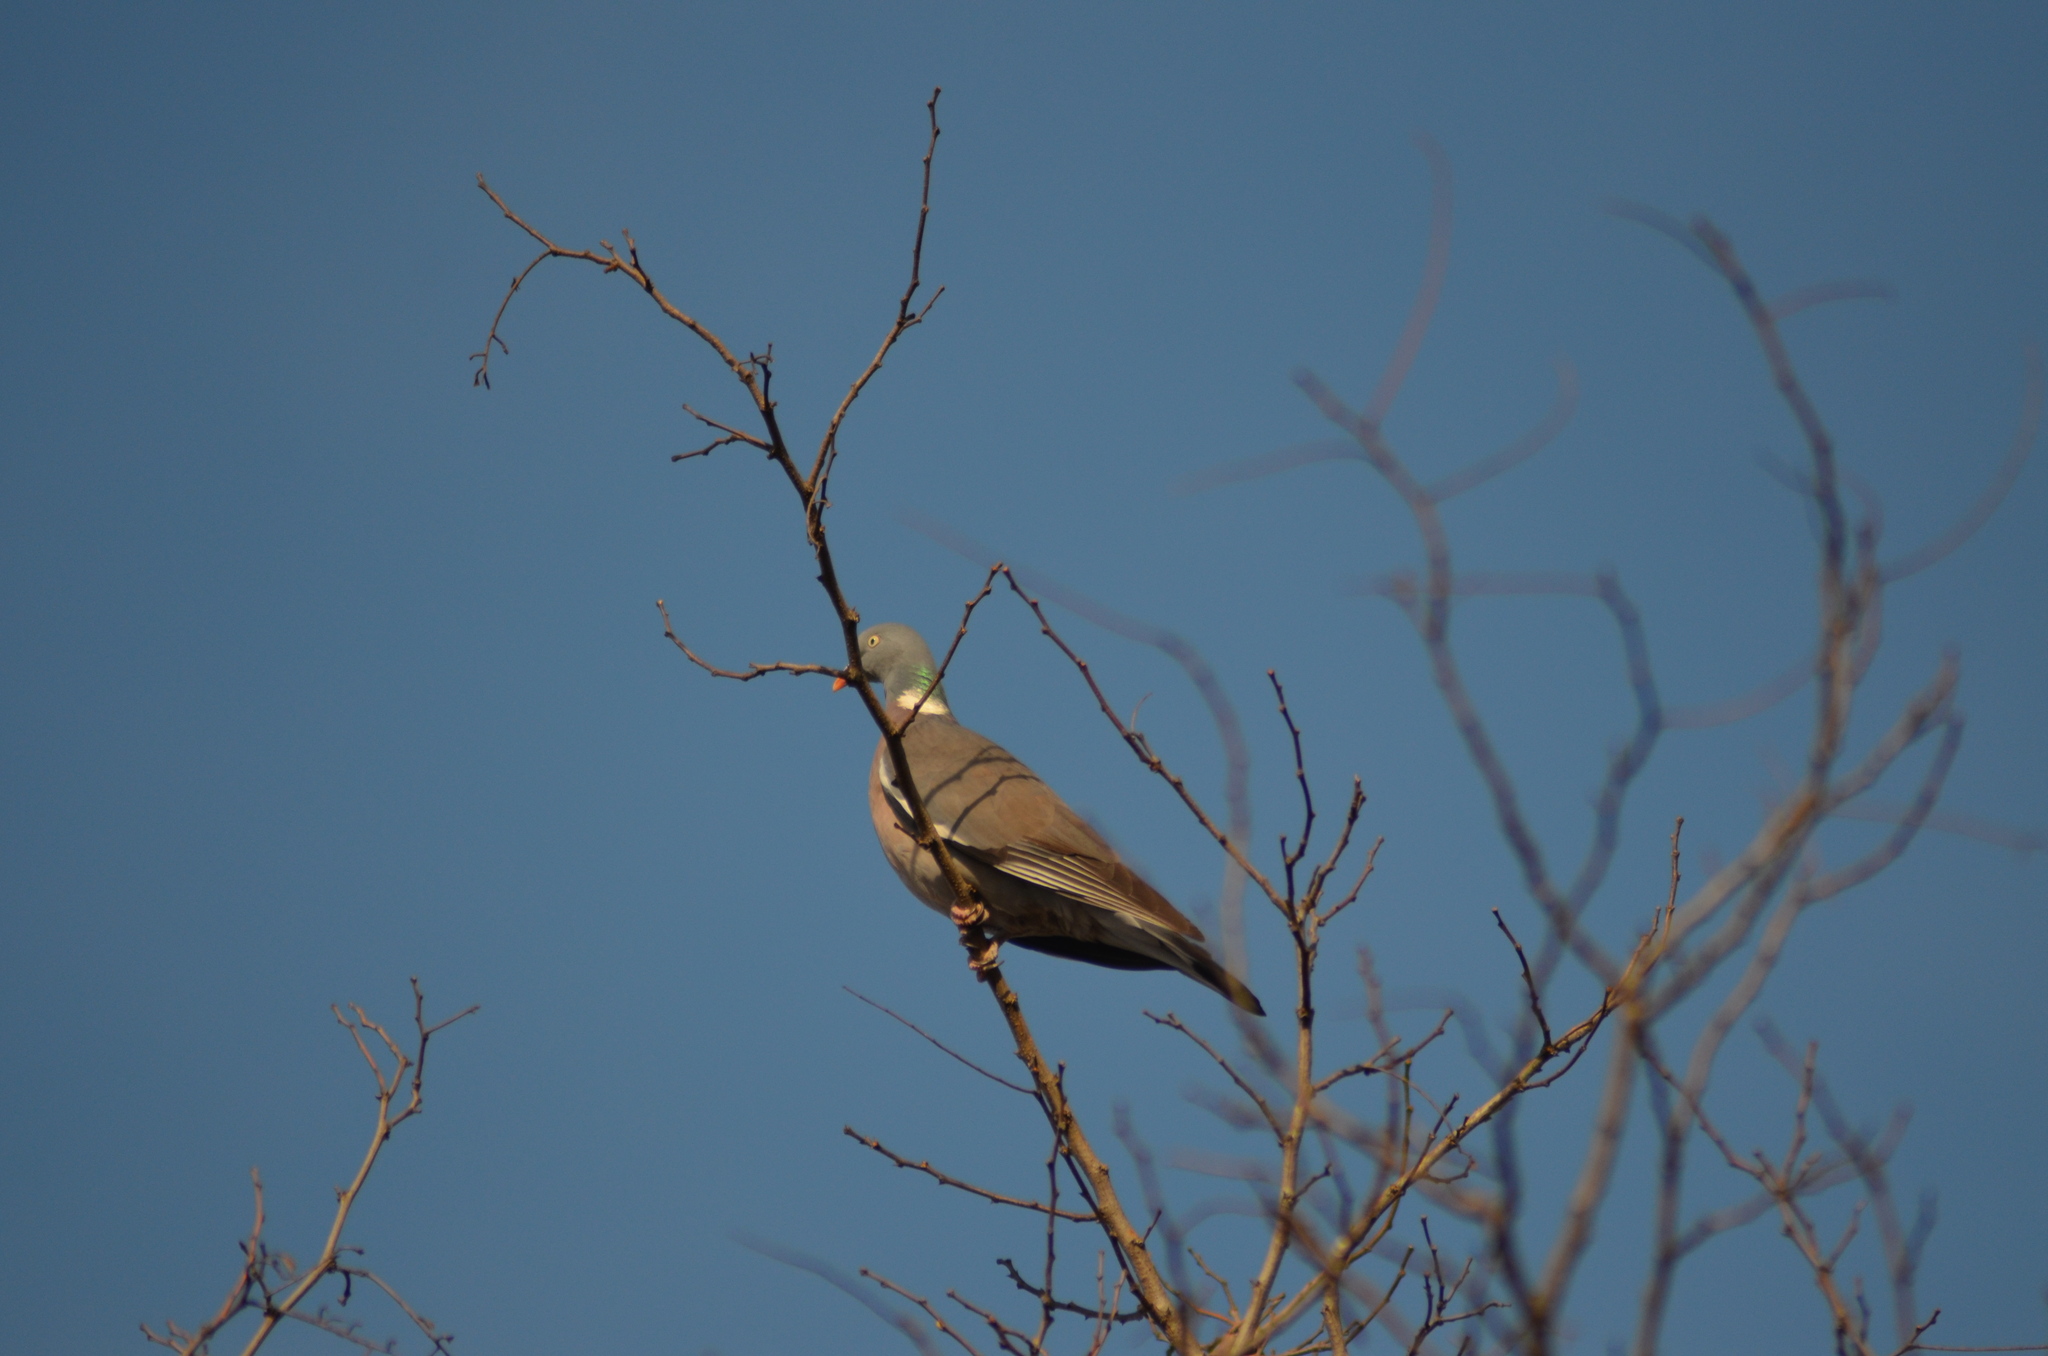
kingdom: Animalia
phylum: Chordata
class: Aves
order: Columbiformes
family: Columbidae
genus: Columba
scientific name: Columba palumbus
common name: Common wood pigeon
